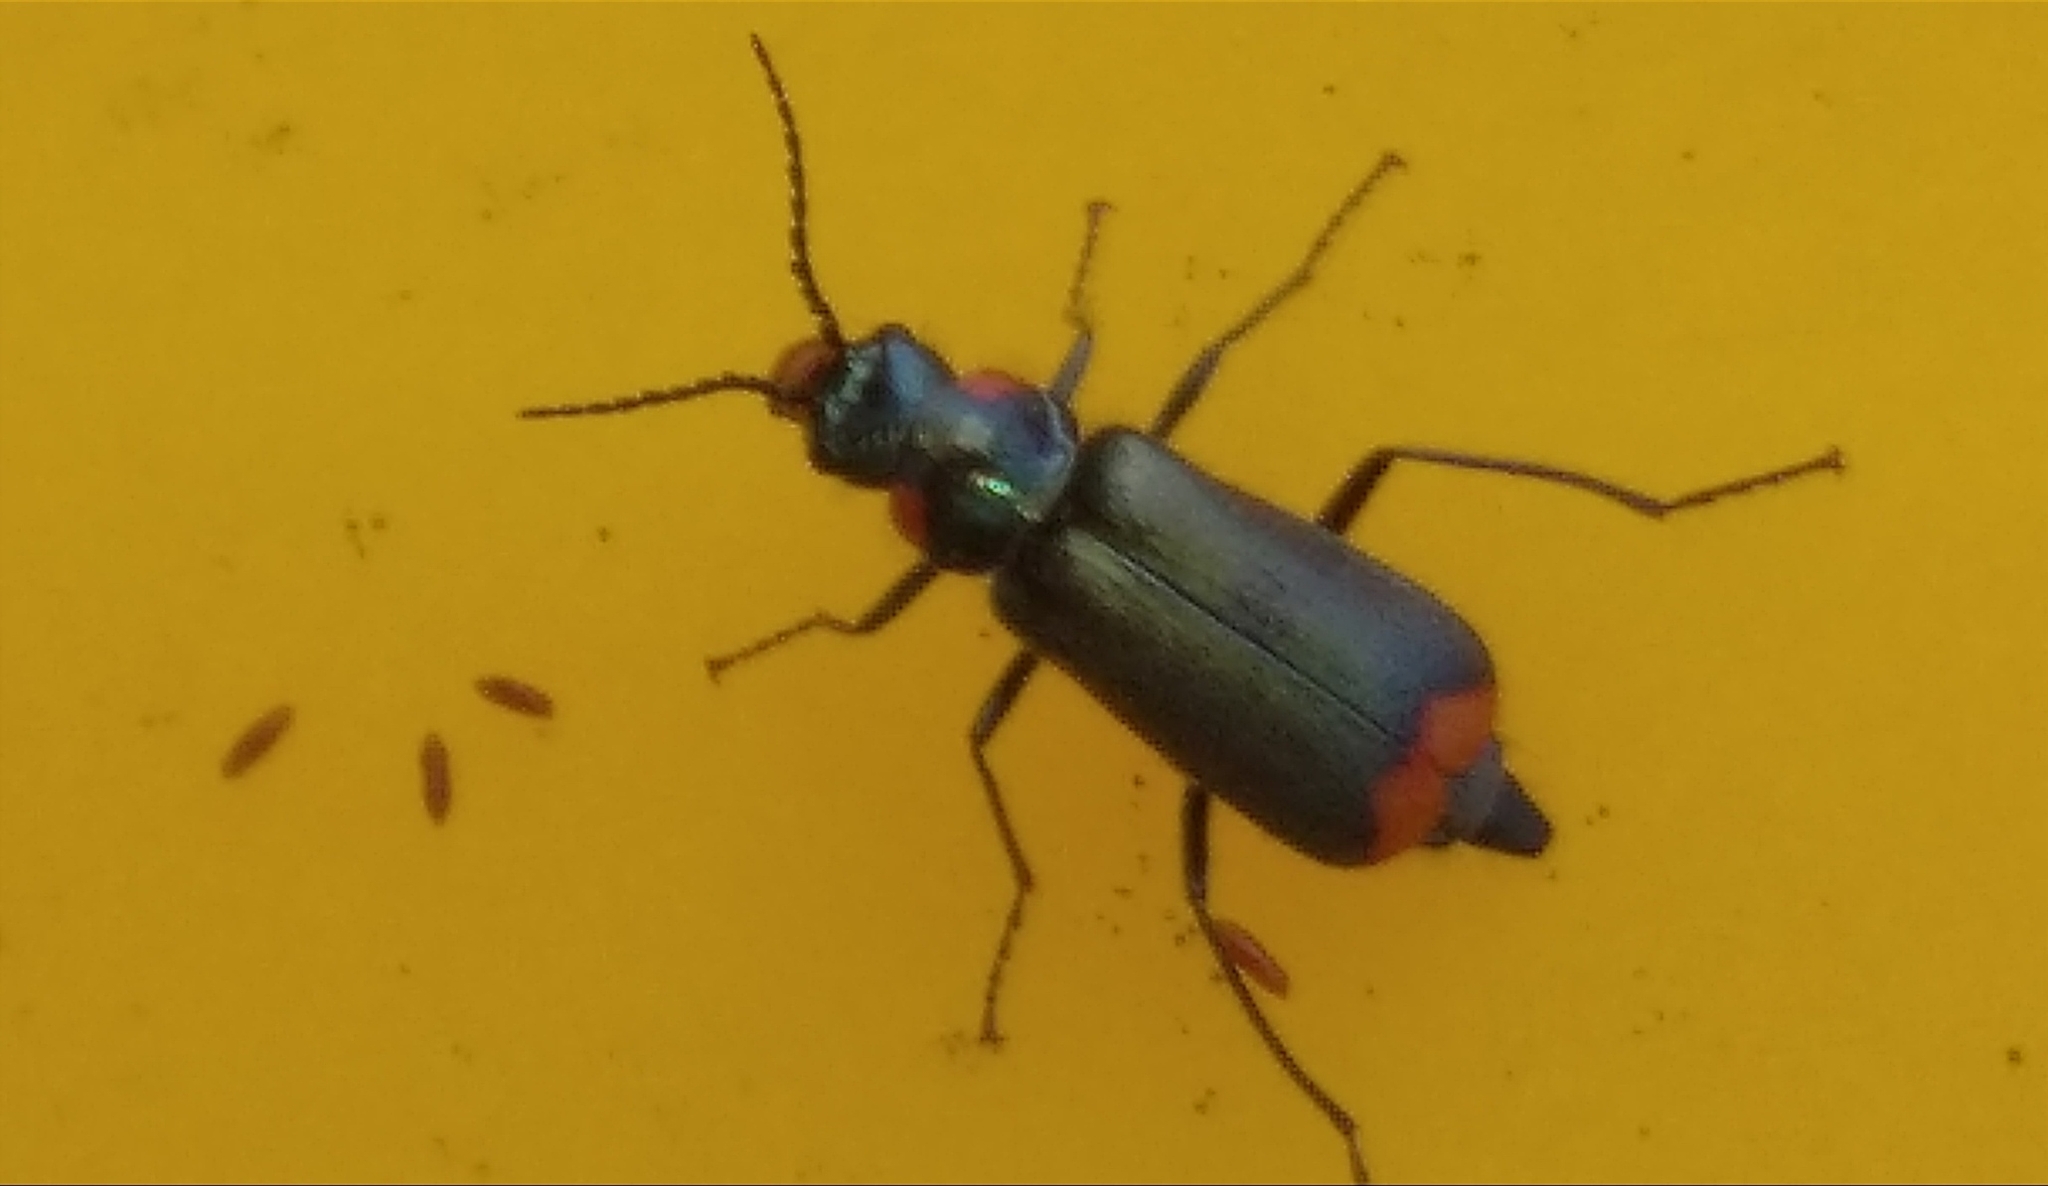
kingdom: Animalia
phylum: Arthropoda
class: Insecta
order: Coleoptera
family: Melyridae
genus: Malachius
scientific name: Malachius
